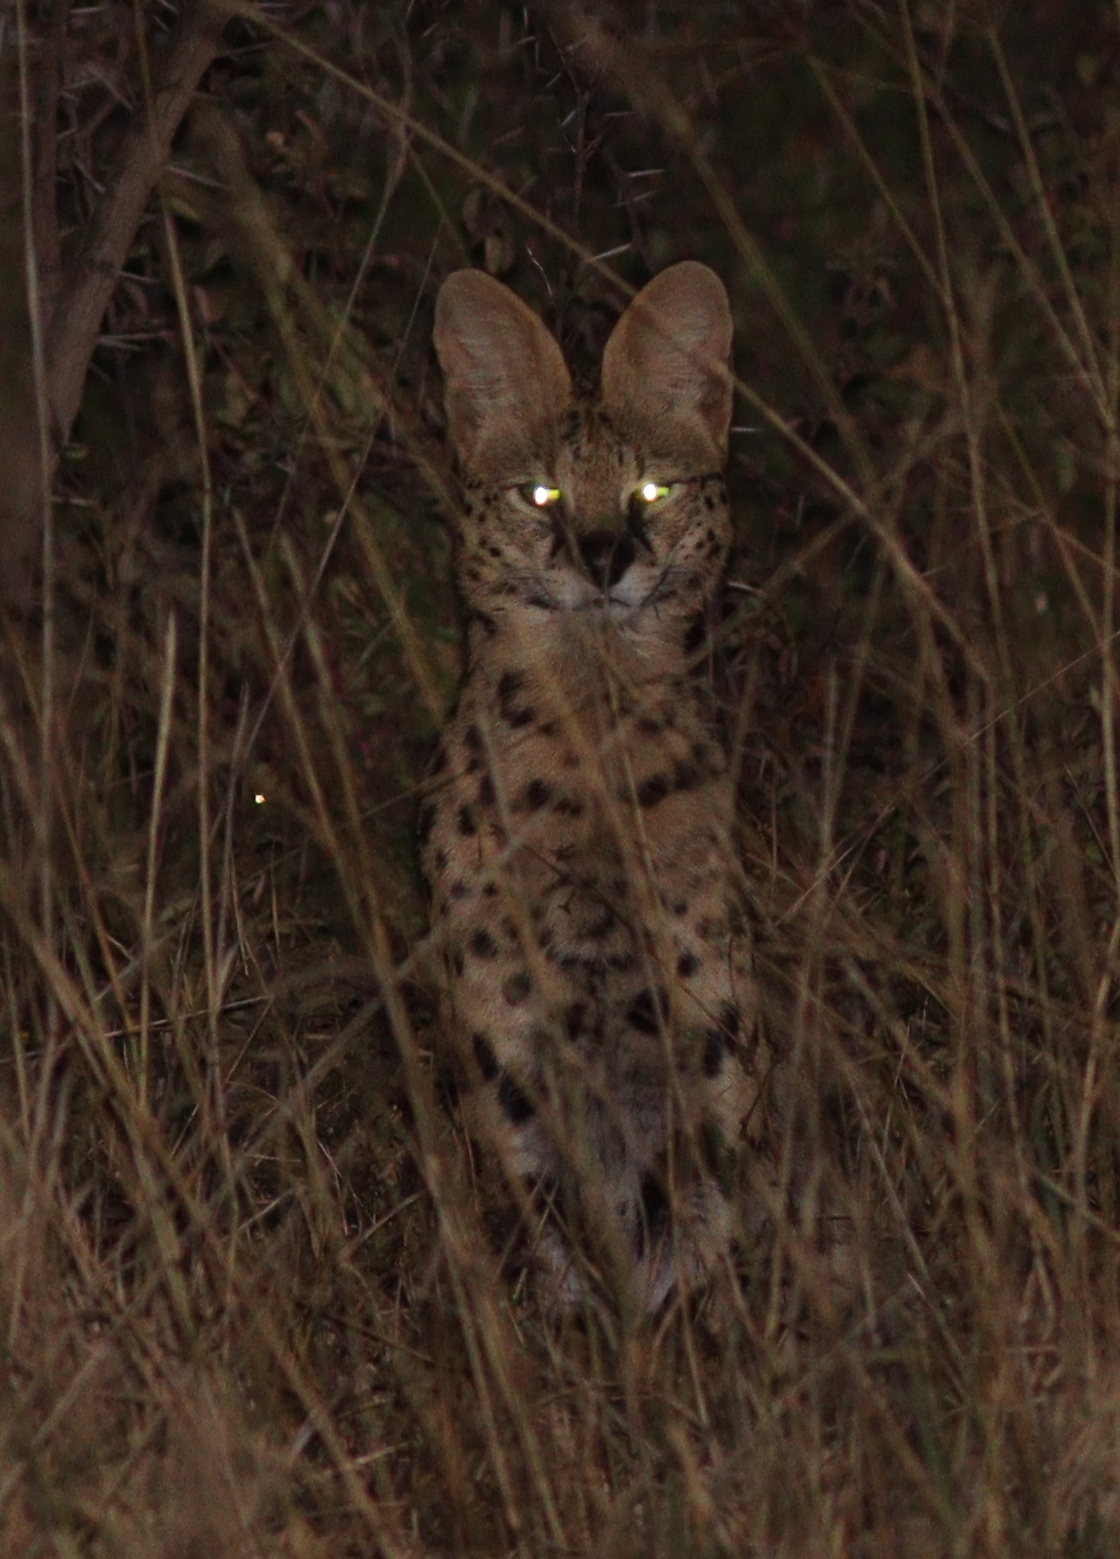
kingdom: Animalia
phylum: Chordata
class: Mammalia
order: Carnivora
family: Felidae
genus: Leptailurus
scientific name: Leptailurus serval
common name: Serval
